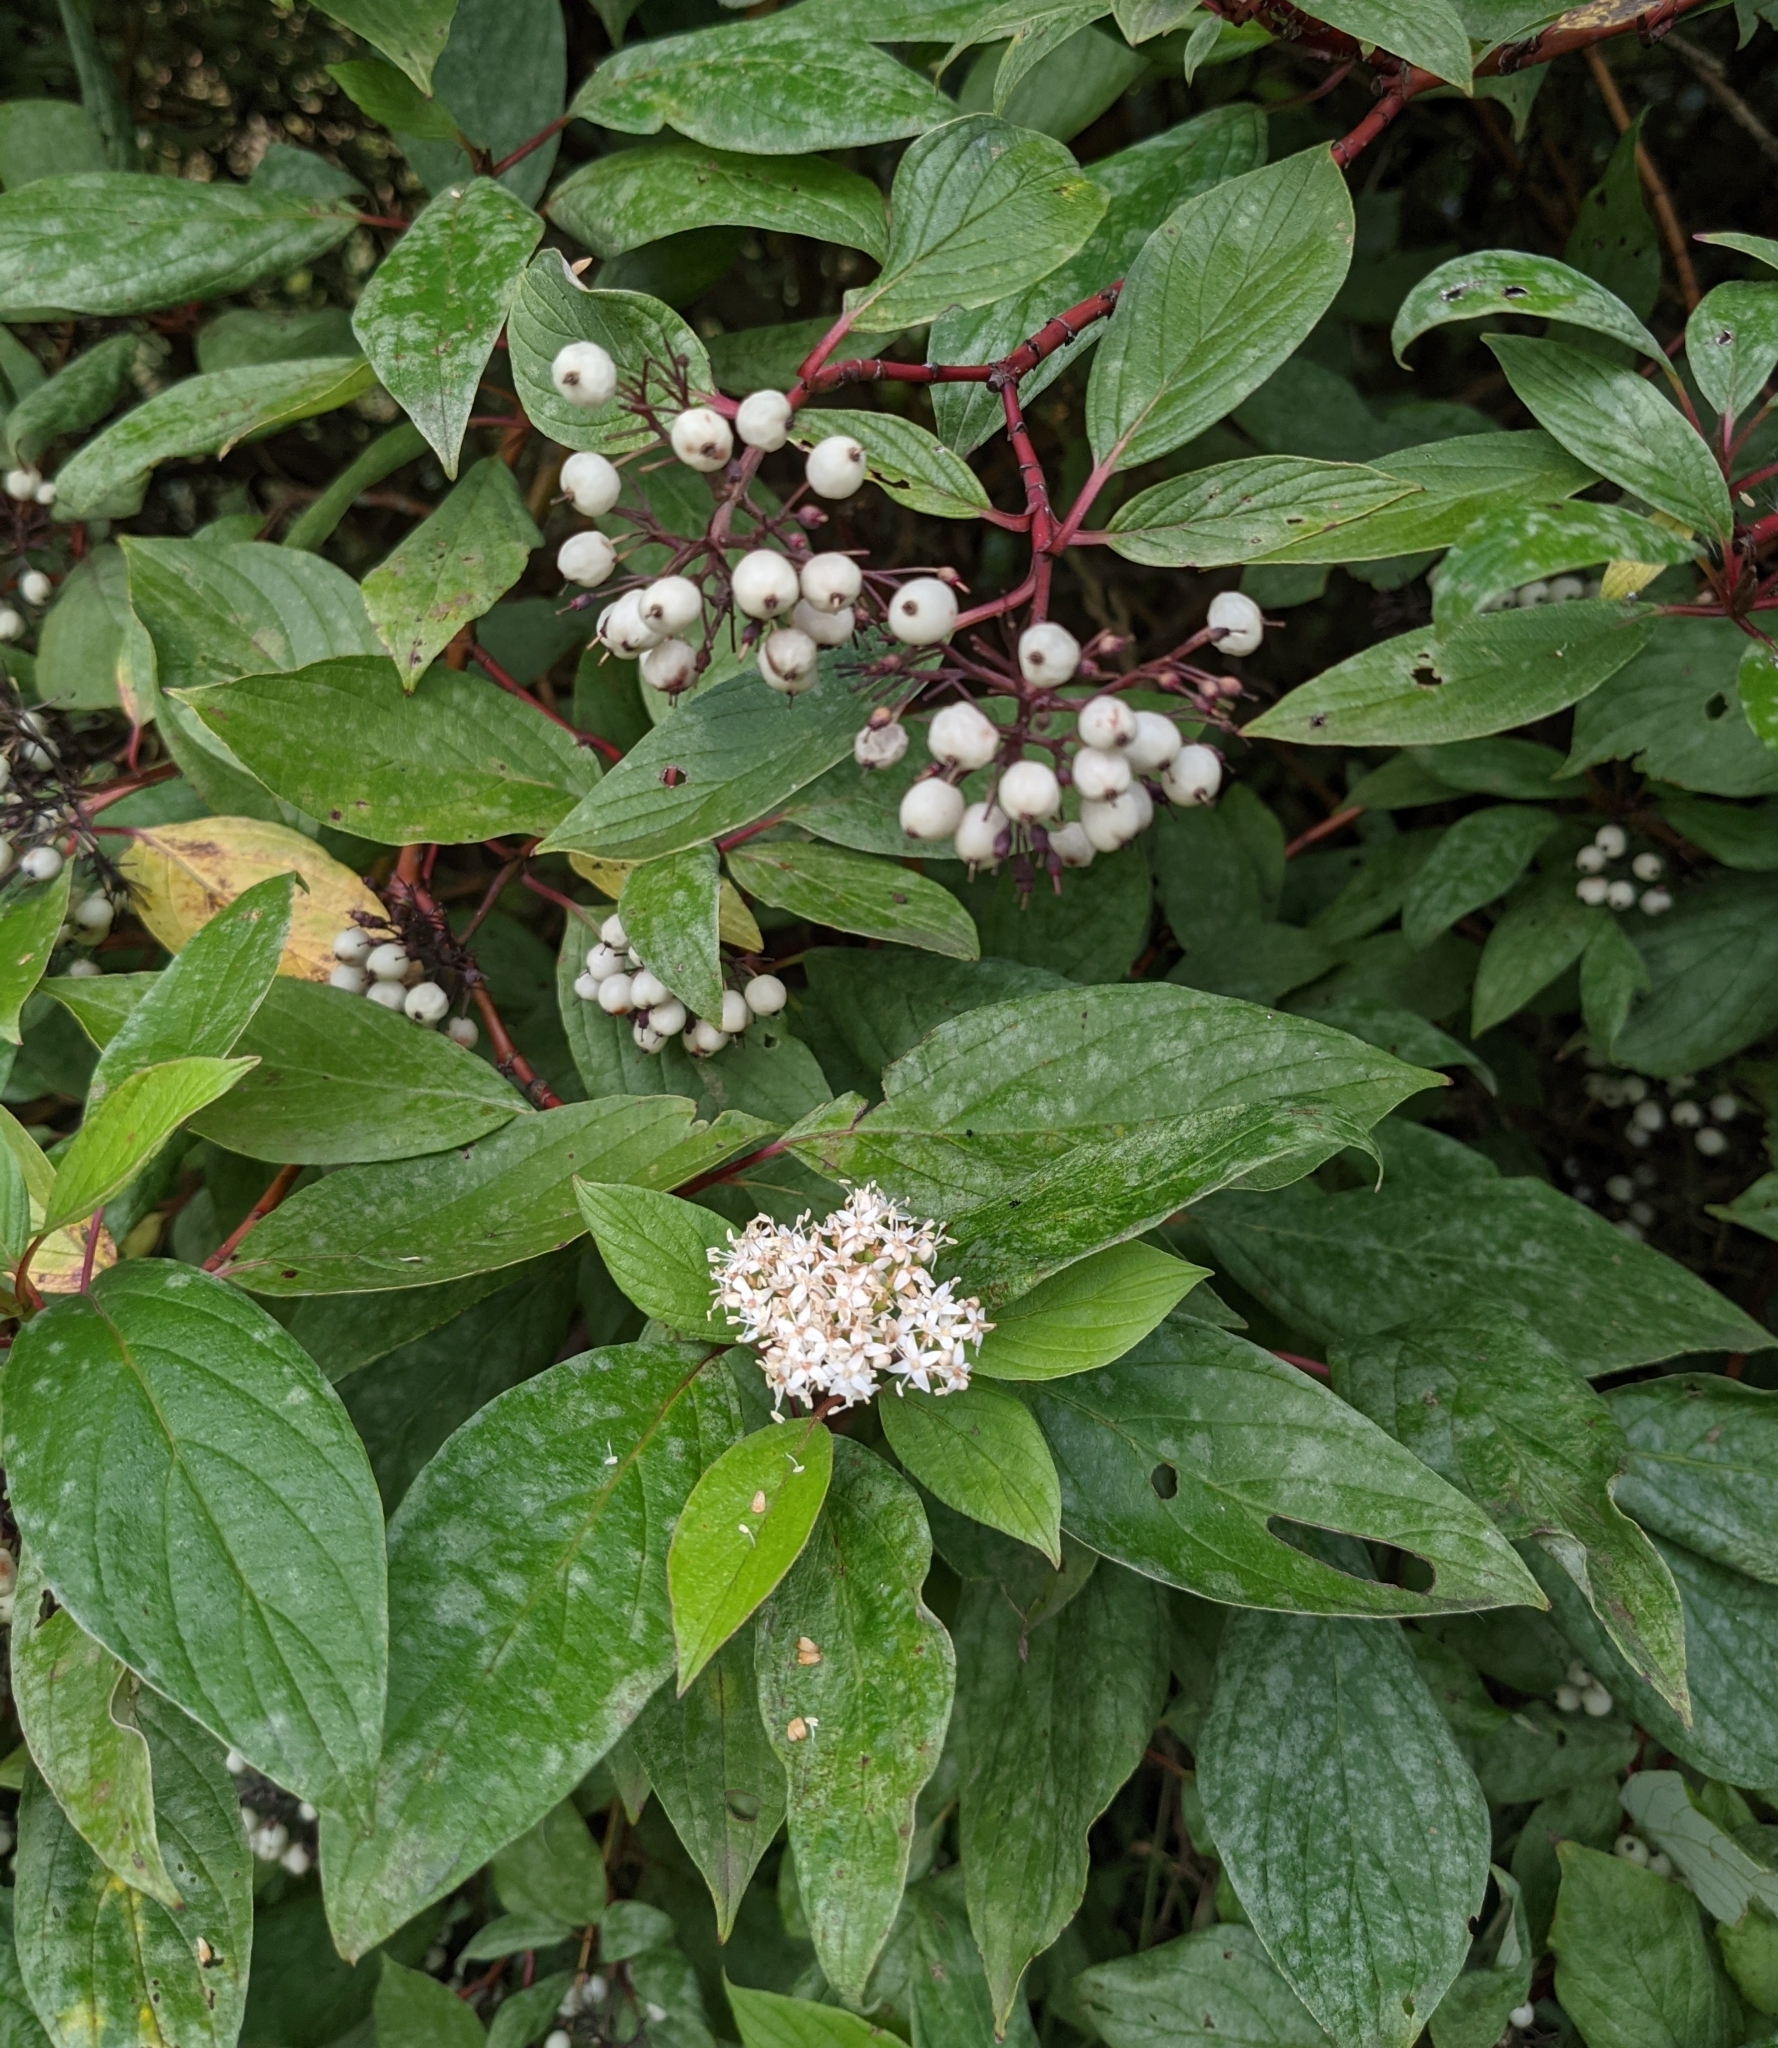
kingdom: Plantae
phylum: Tracheophyta
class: Magnoliopsida
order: Cornales
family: Cornaceae
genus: Cornus
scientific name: Cornus alba
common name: White dogwood
